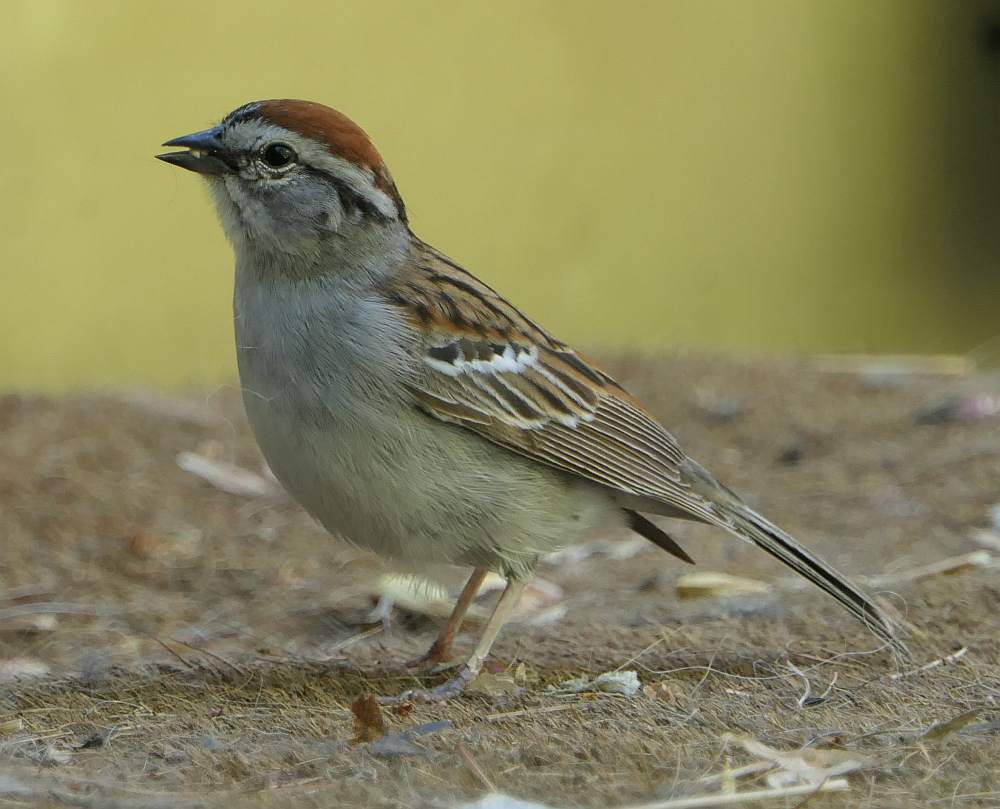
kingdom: Animalia
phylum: Chordata
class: Aves
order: Passeriformes
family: Passerellidae
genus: Spizella
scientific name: Spizella passerina
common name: Chipping sparrow
